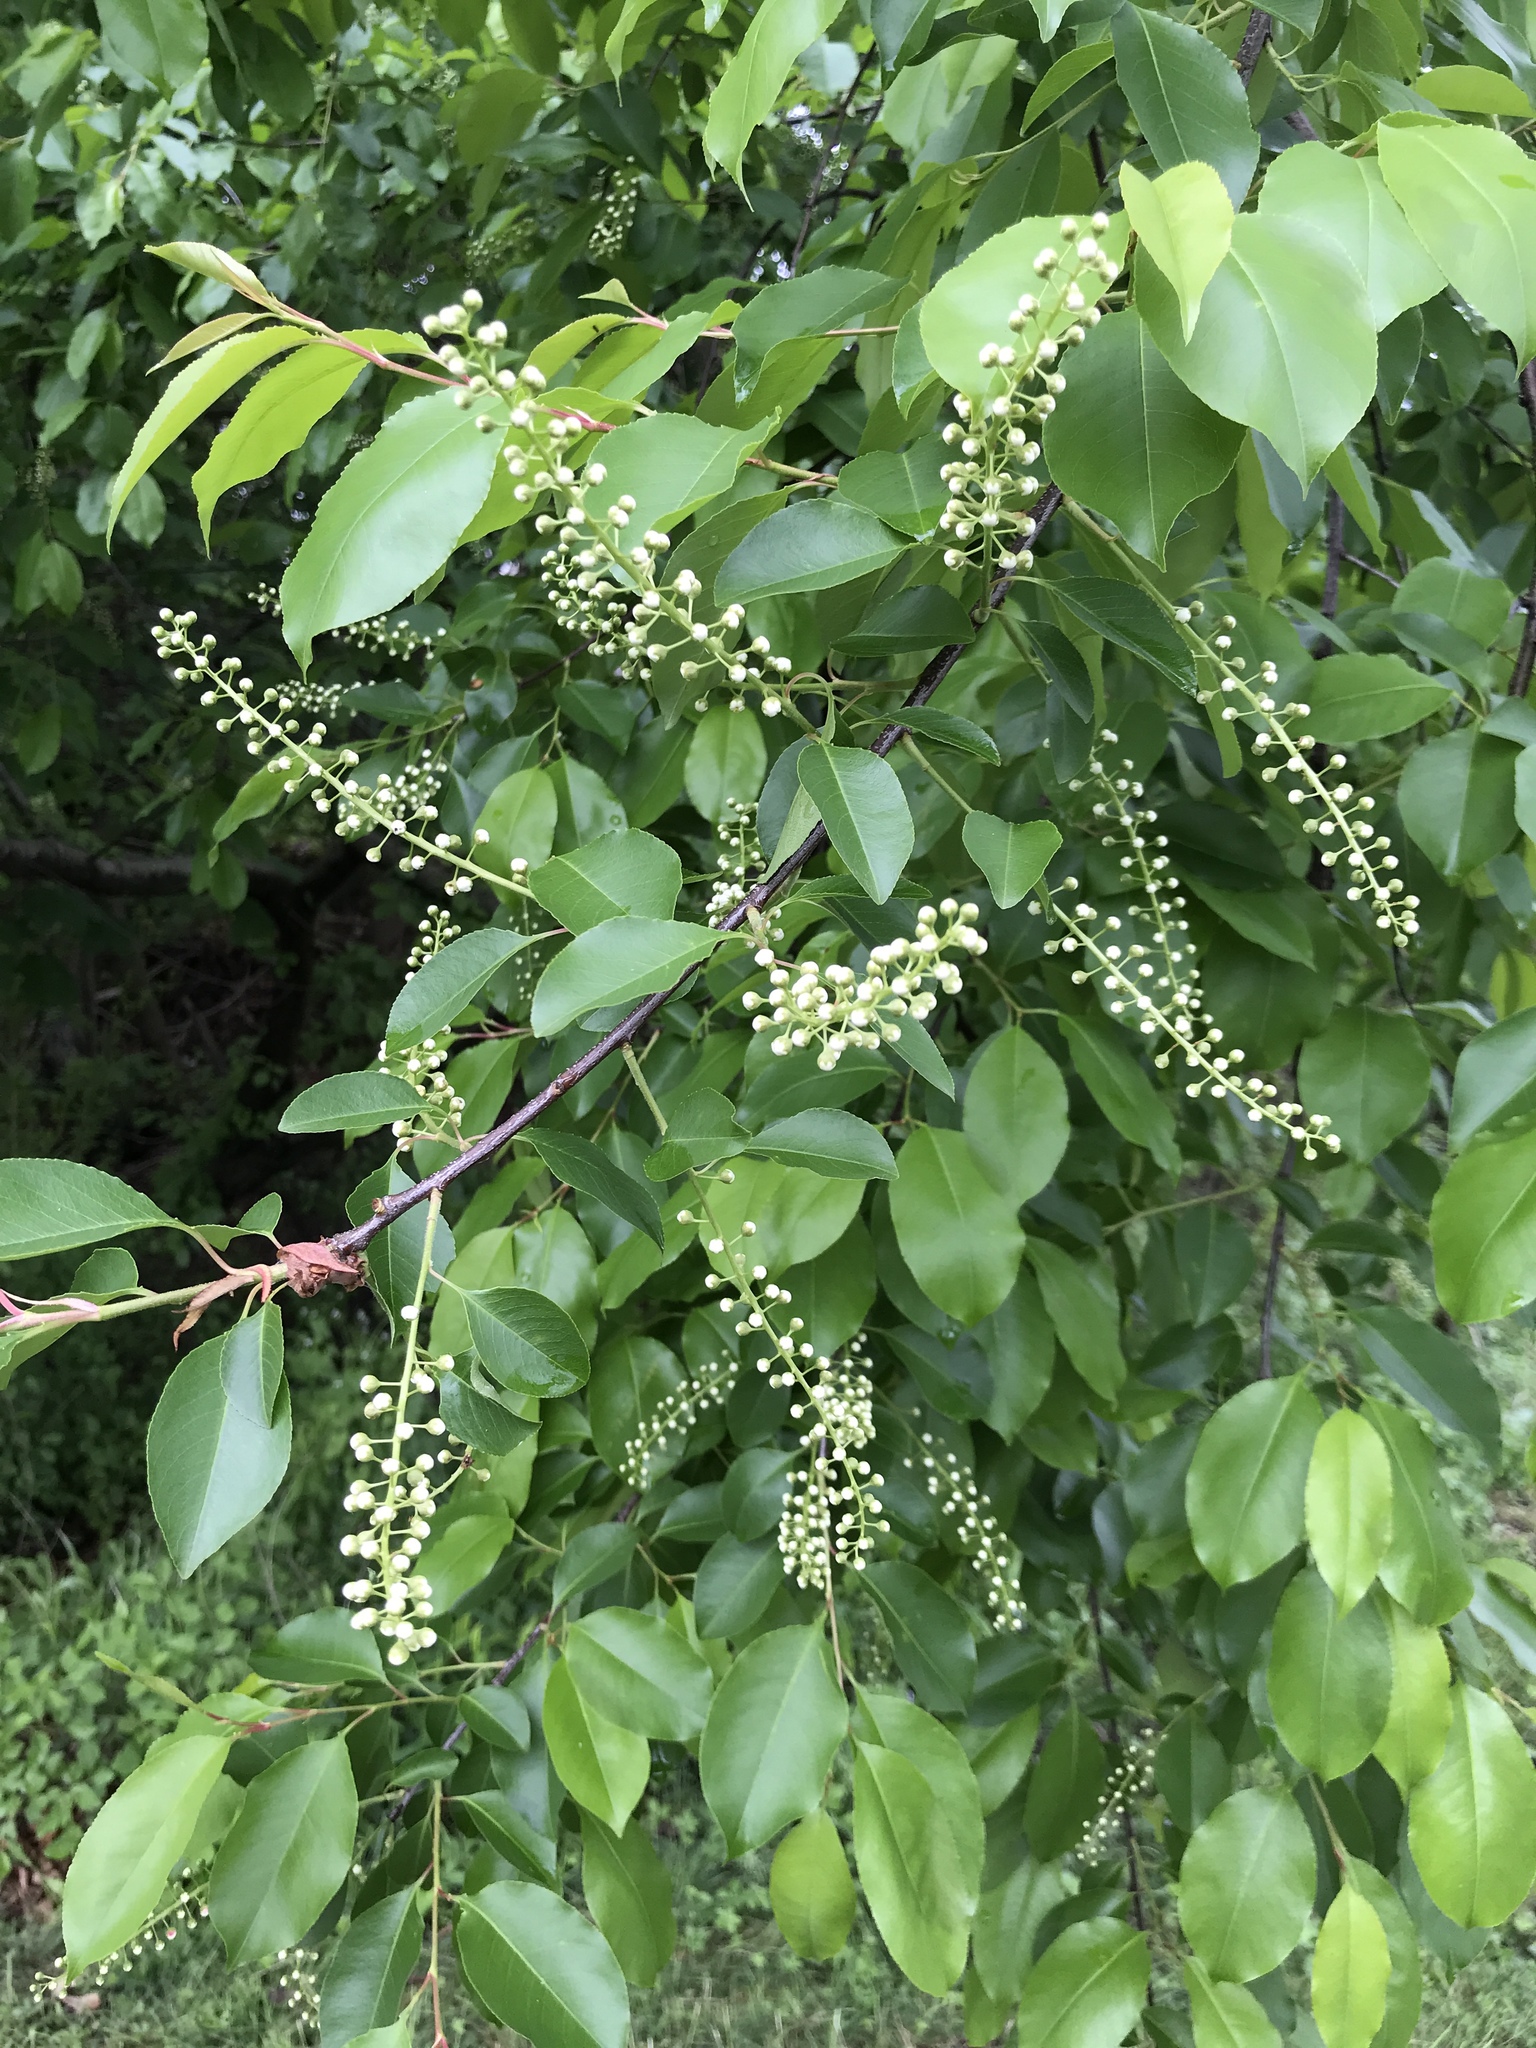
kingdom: Plantae
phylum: Tracheophyta
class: Magnoliopsida
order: Rosales
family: Rosaceae
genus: Prunus
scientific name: Prunus serotina
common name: Black cherry
